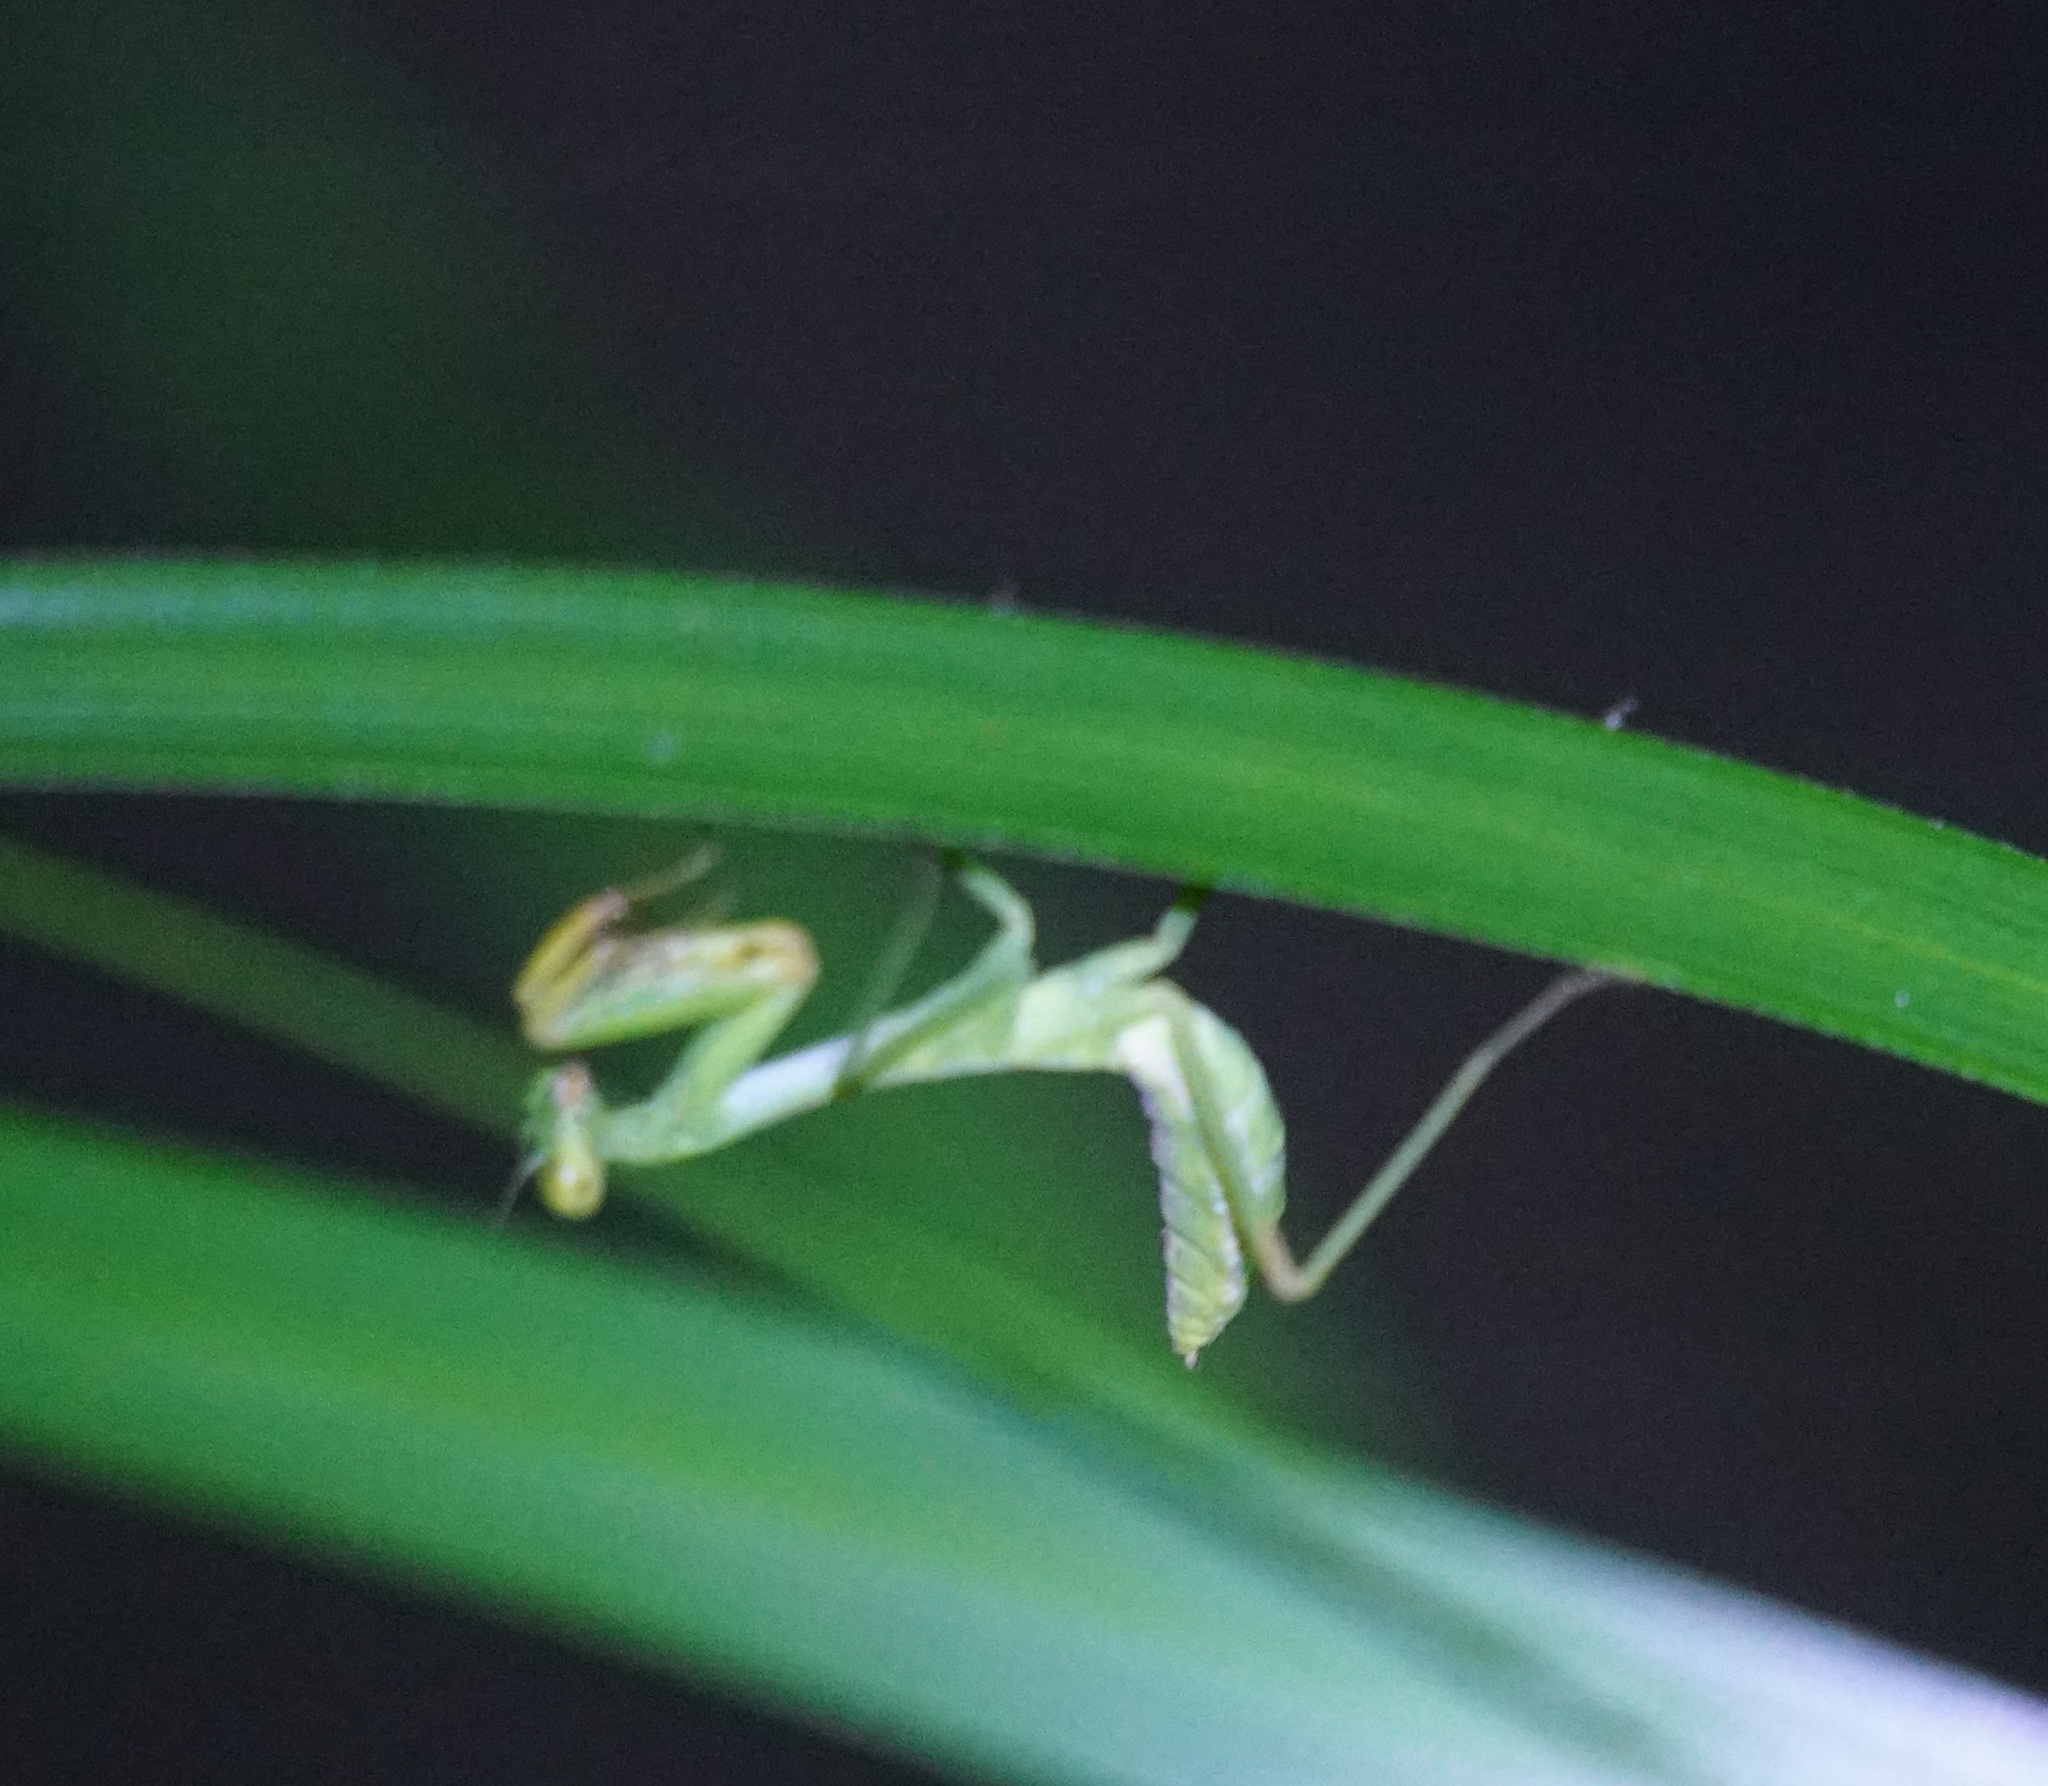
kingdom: Animalia
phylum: Arthropoda
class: Insecta
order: Mantodea
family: Mantidae
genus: Hierodula
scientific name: Hierodula majuscula
